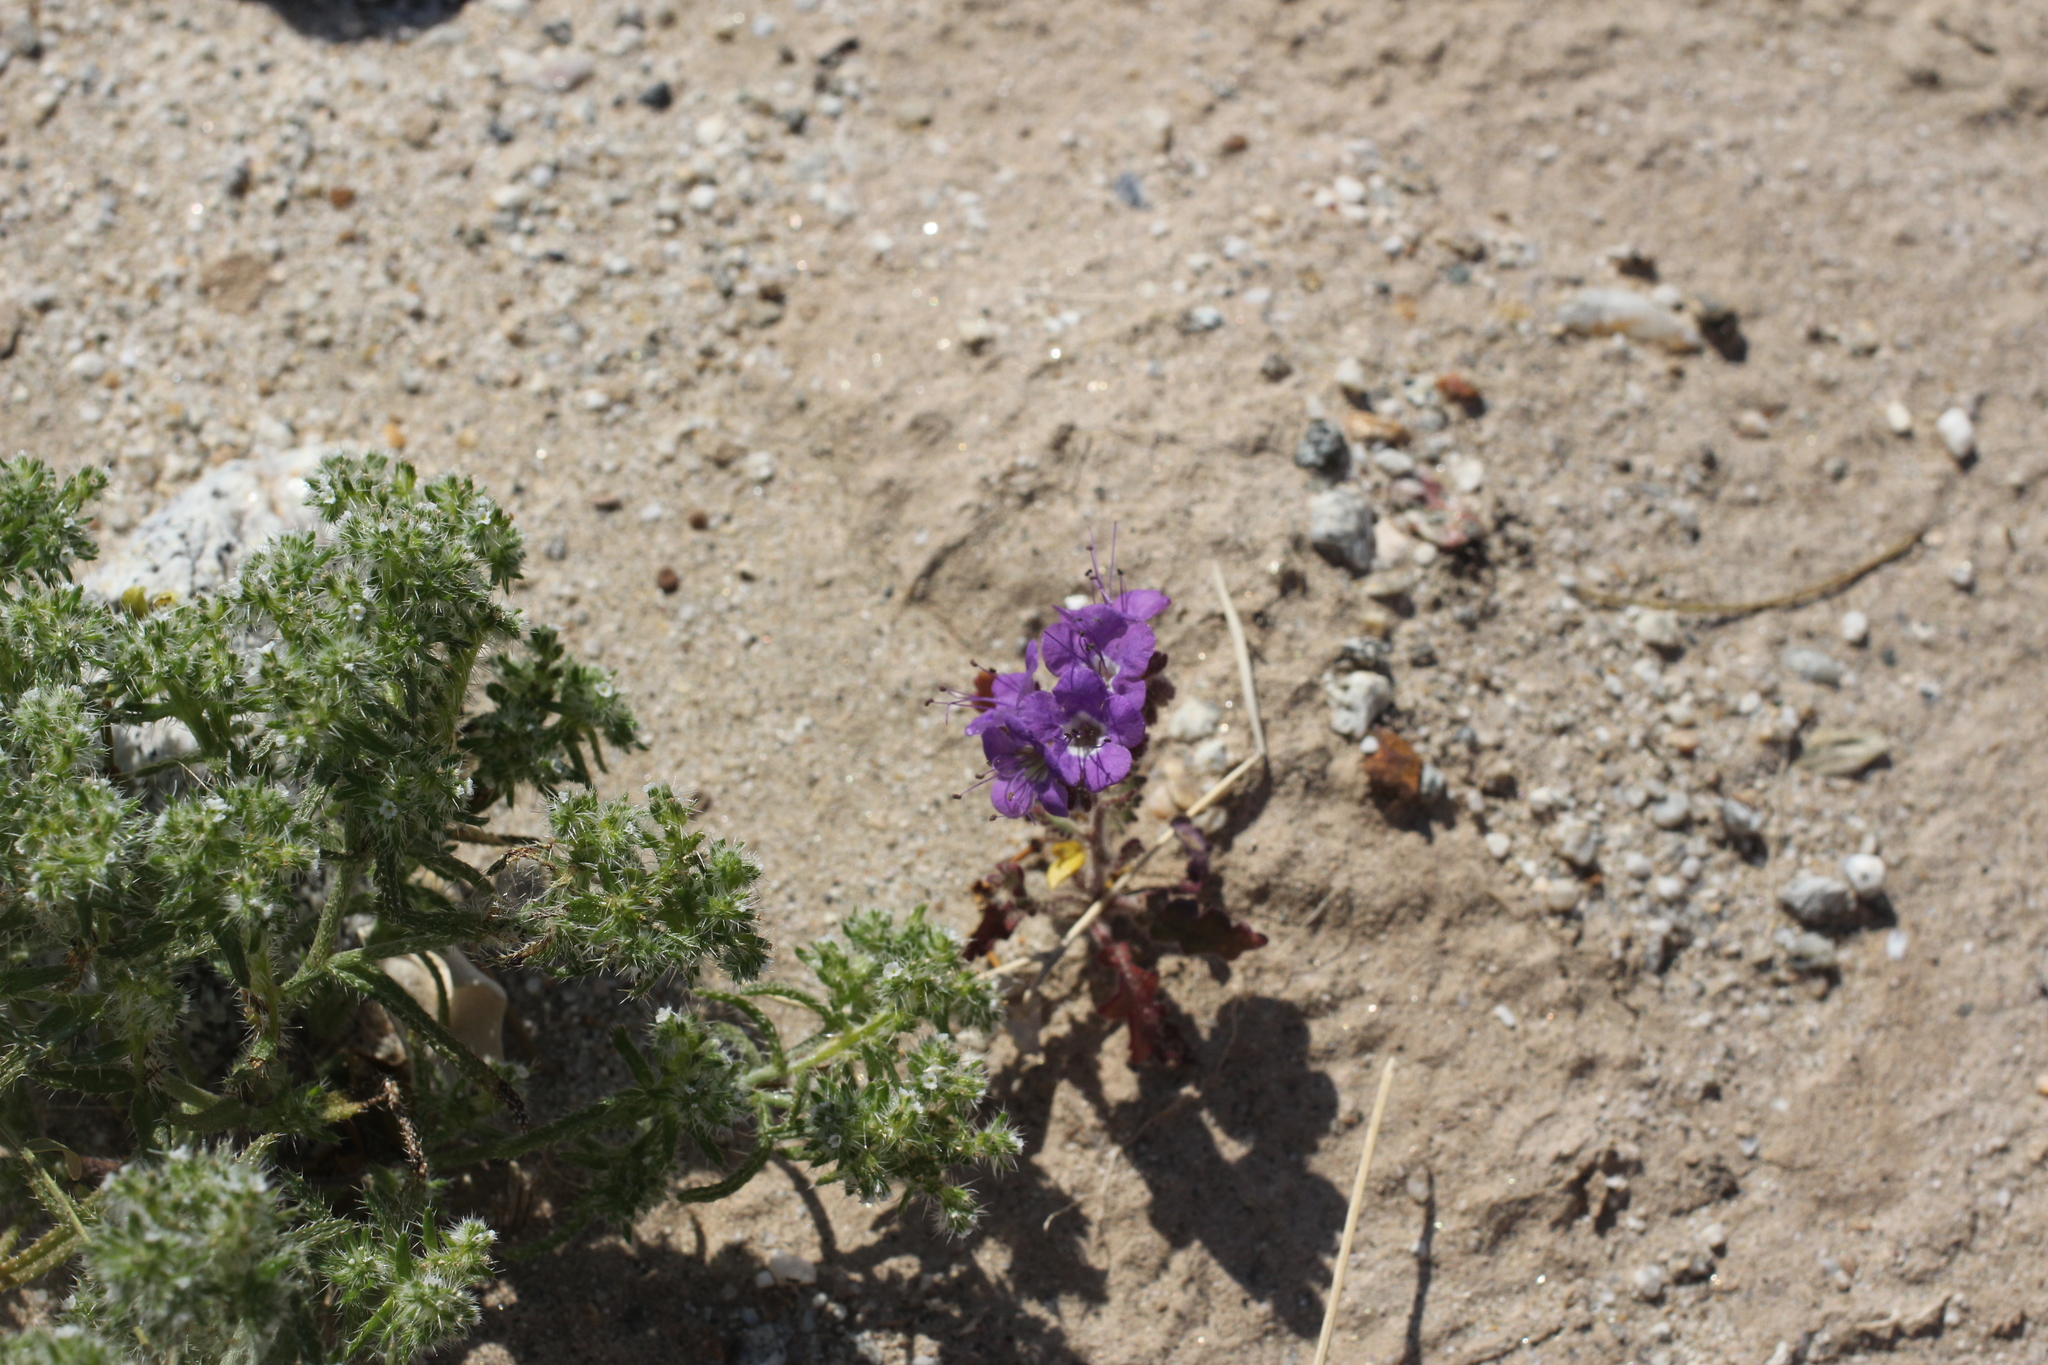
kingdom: Plantae
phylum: Tracheophyta
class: Magnoliopsida
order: Boraginales
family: Hydrophyllaceae
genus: Phacelia
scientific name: Phacelia crenulata
